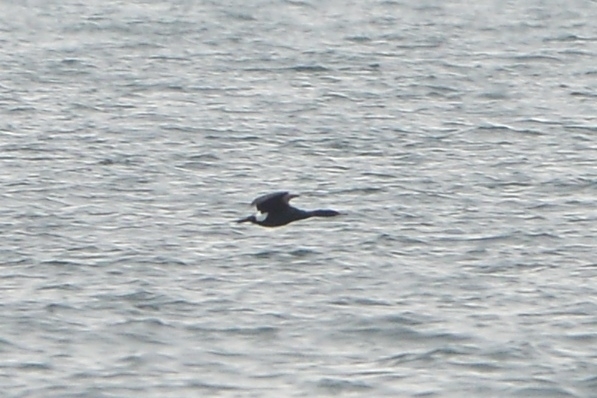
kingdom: Animalia
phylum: Chordata
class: Aves
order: Suliformes
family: Phalacrocoracidae
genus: Phalacrocorax
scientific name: Phalacrocorax pelagicus
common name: Pelagic cormorant
